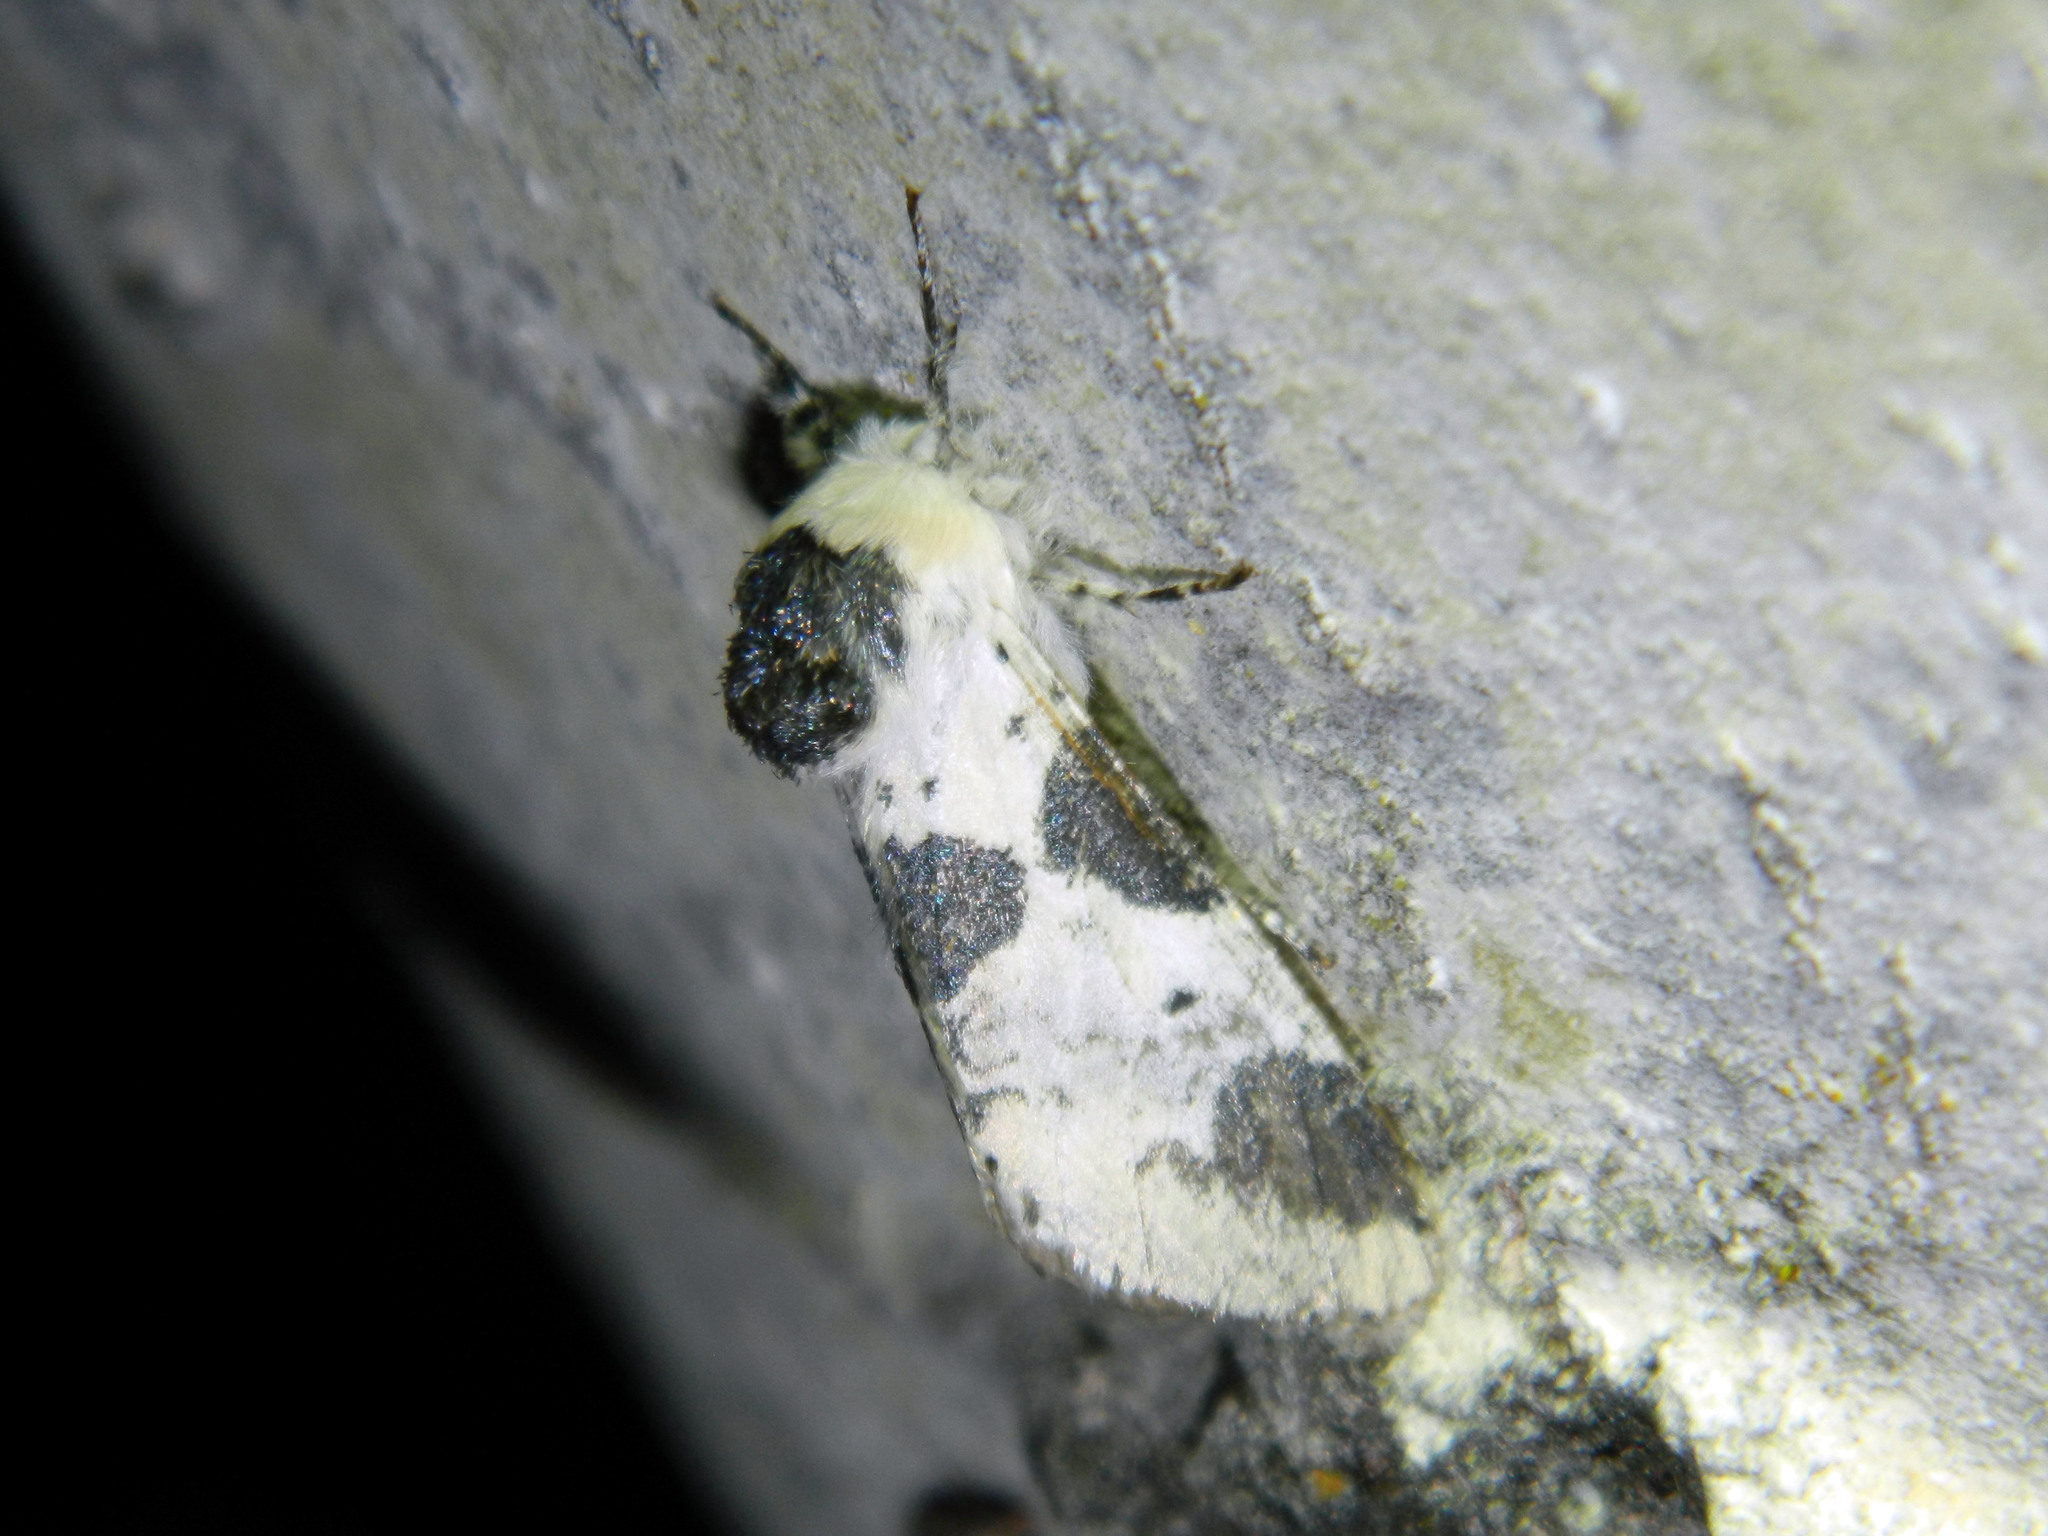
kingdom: Animalia
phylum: Arthropoda
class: Insecta
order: Lepidoptera
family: Notodontidae
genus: Furcula
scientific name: Furcula modesta
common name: Modest furcula moth
